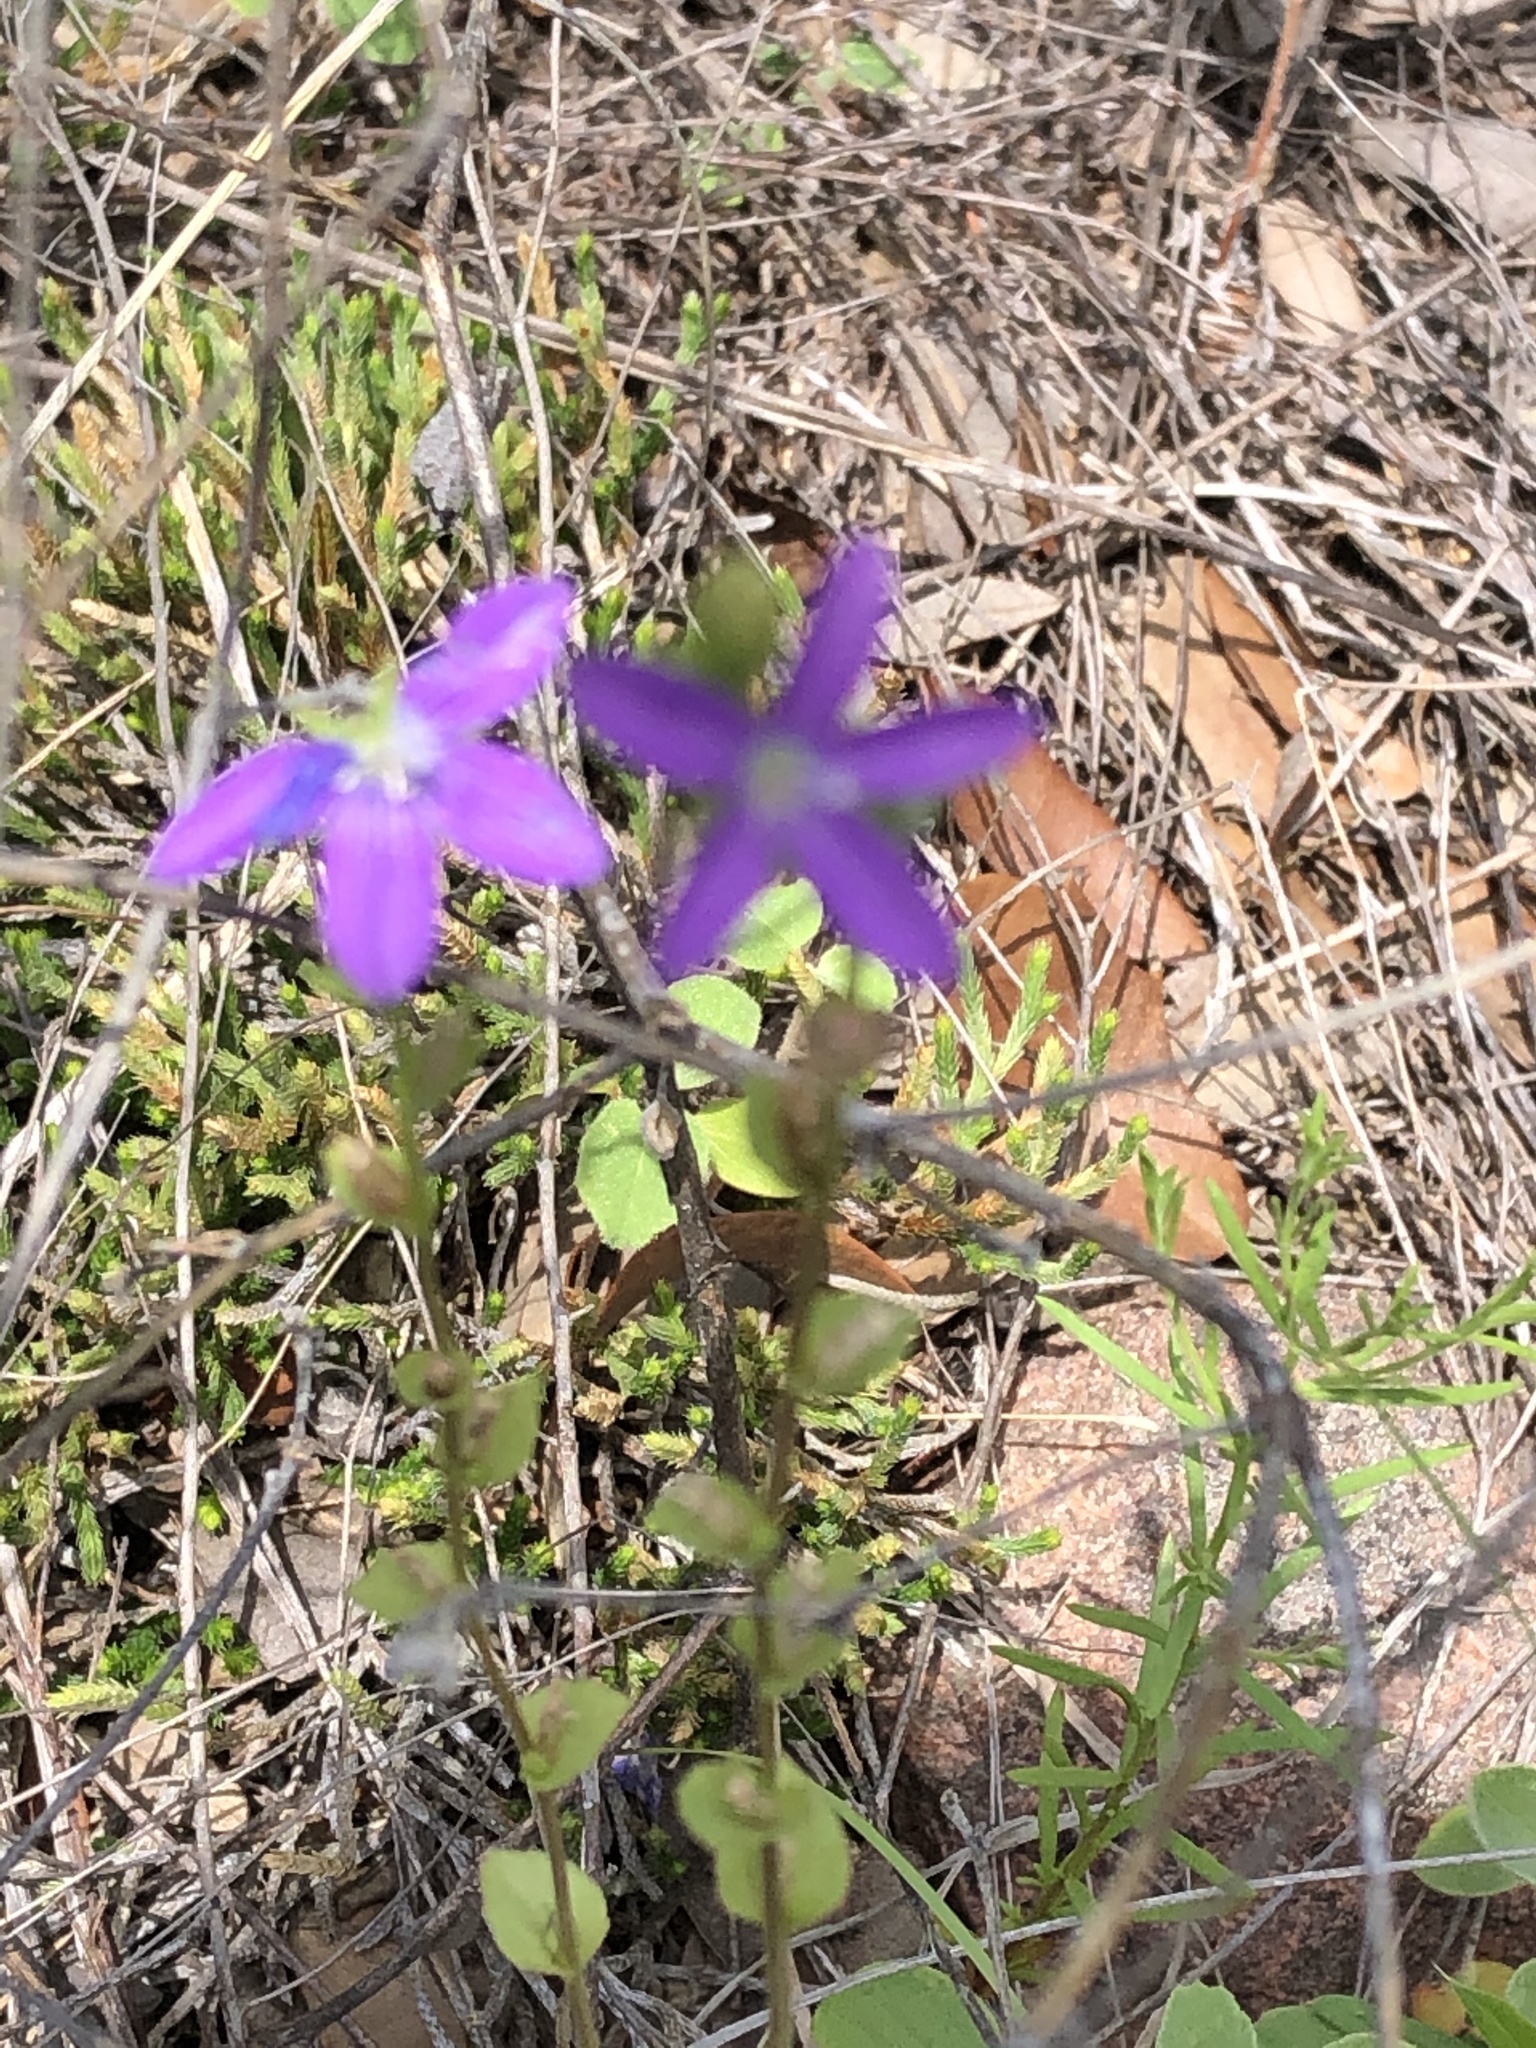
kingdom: Plantae
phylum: Tracheophyta
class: Magnoliopsida
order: Asterales
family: Campanulaceae
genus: Triodanis
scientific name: Triodanis biflora
